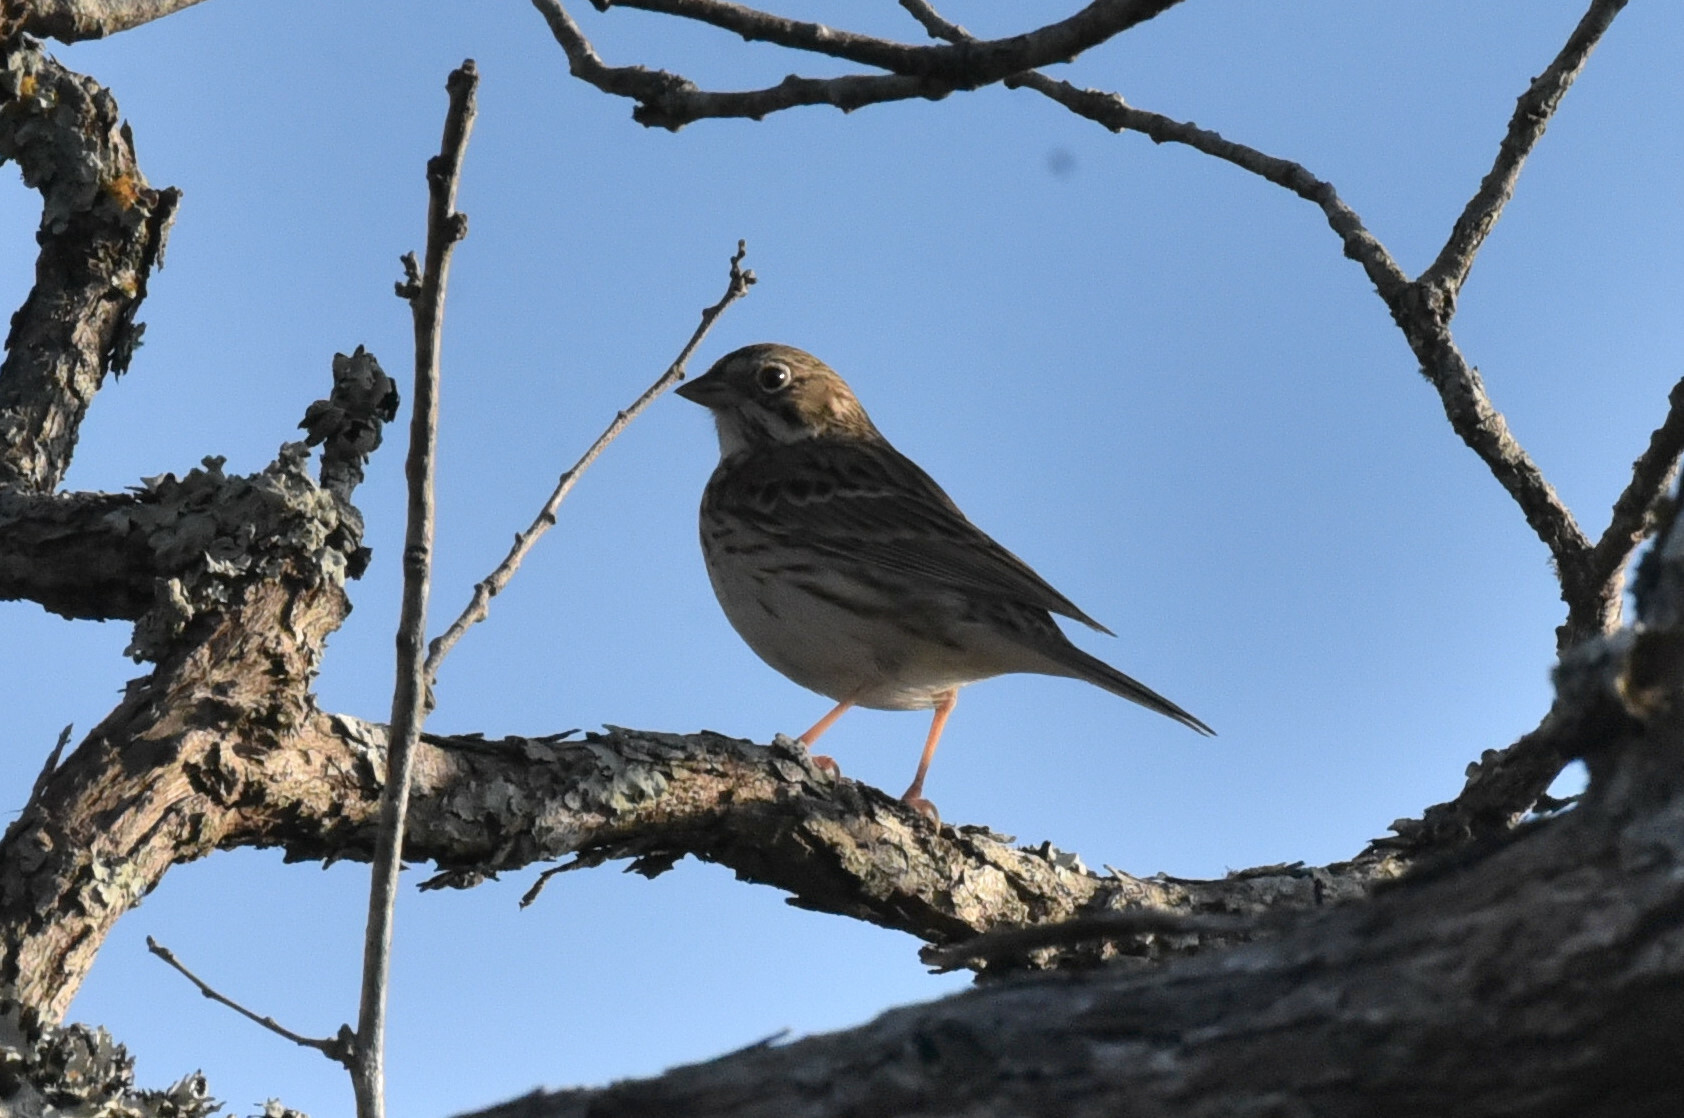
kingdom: Animalia
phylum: Chordata
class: Aves
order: Passeriformes
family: Passerellidae
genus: Pooecetes
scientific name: Pooecetes gramineus
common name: Vesper sparrow
